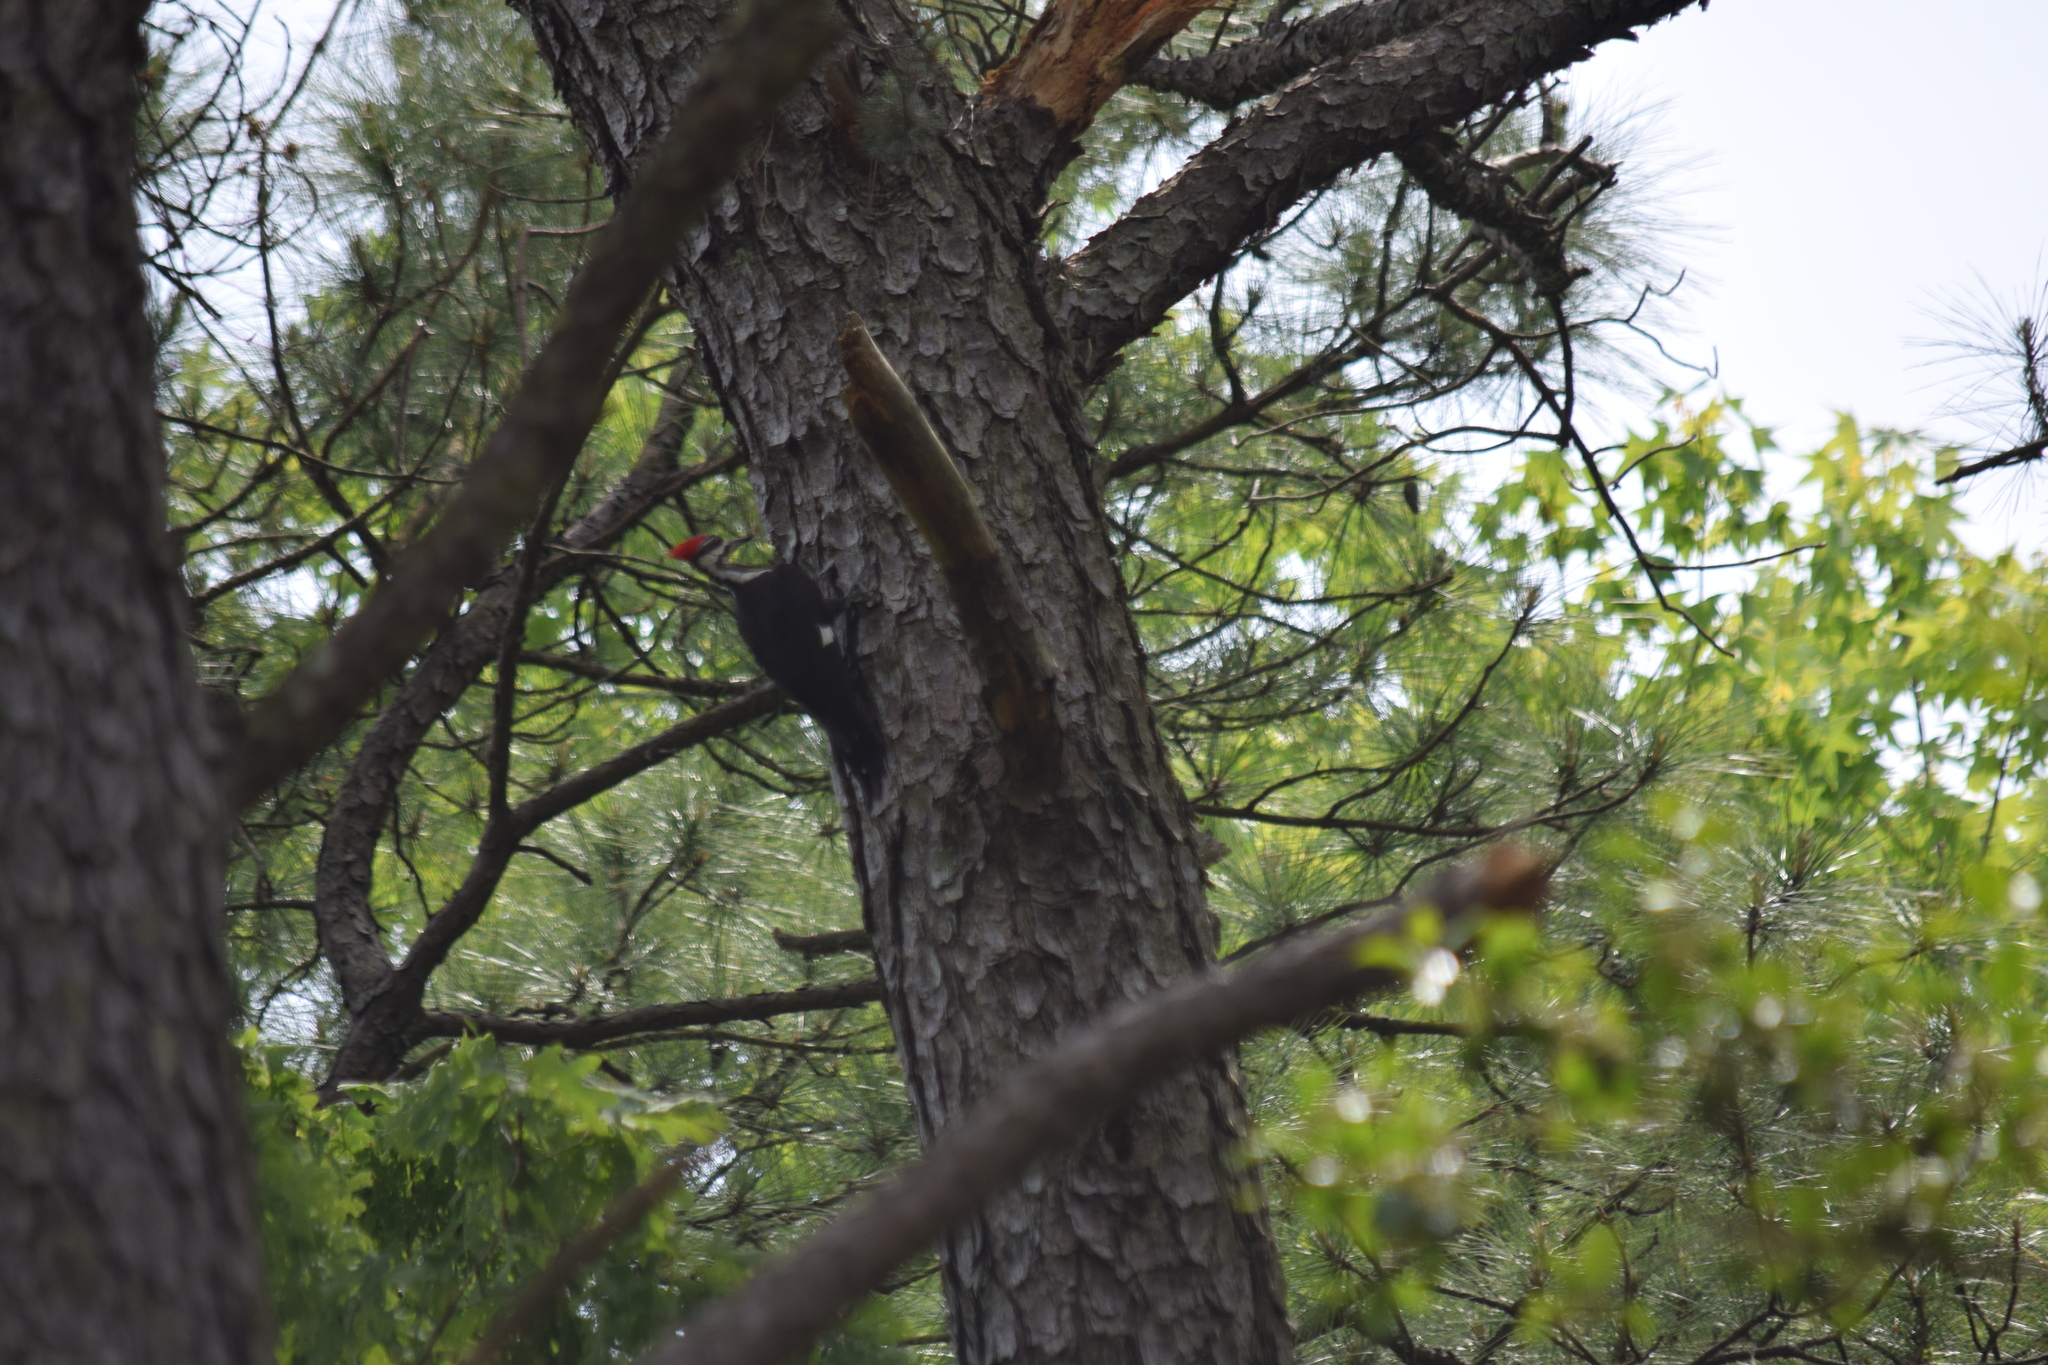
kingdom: Animalia
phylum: Chordata
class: Aves
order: Piciformes
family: Picidae
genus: Dryocopus
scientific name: Dryocopus pileatus
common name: Pileated woodpecker
